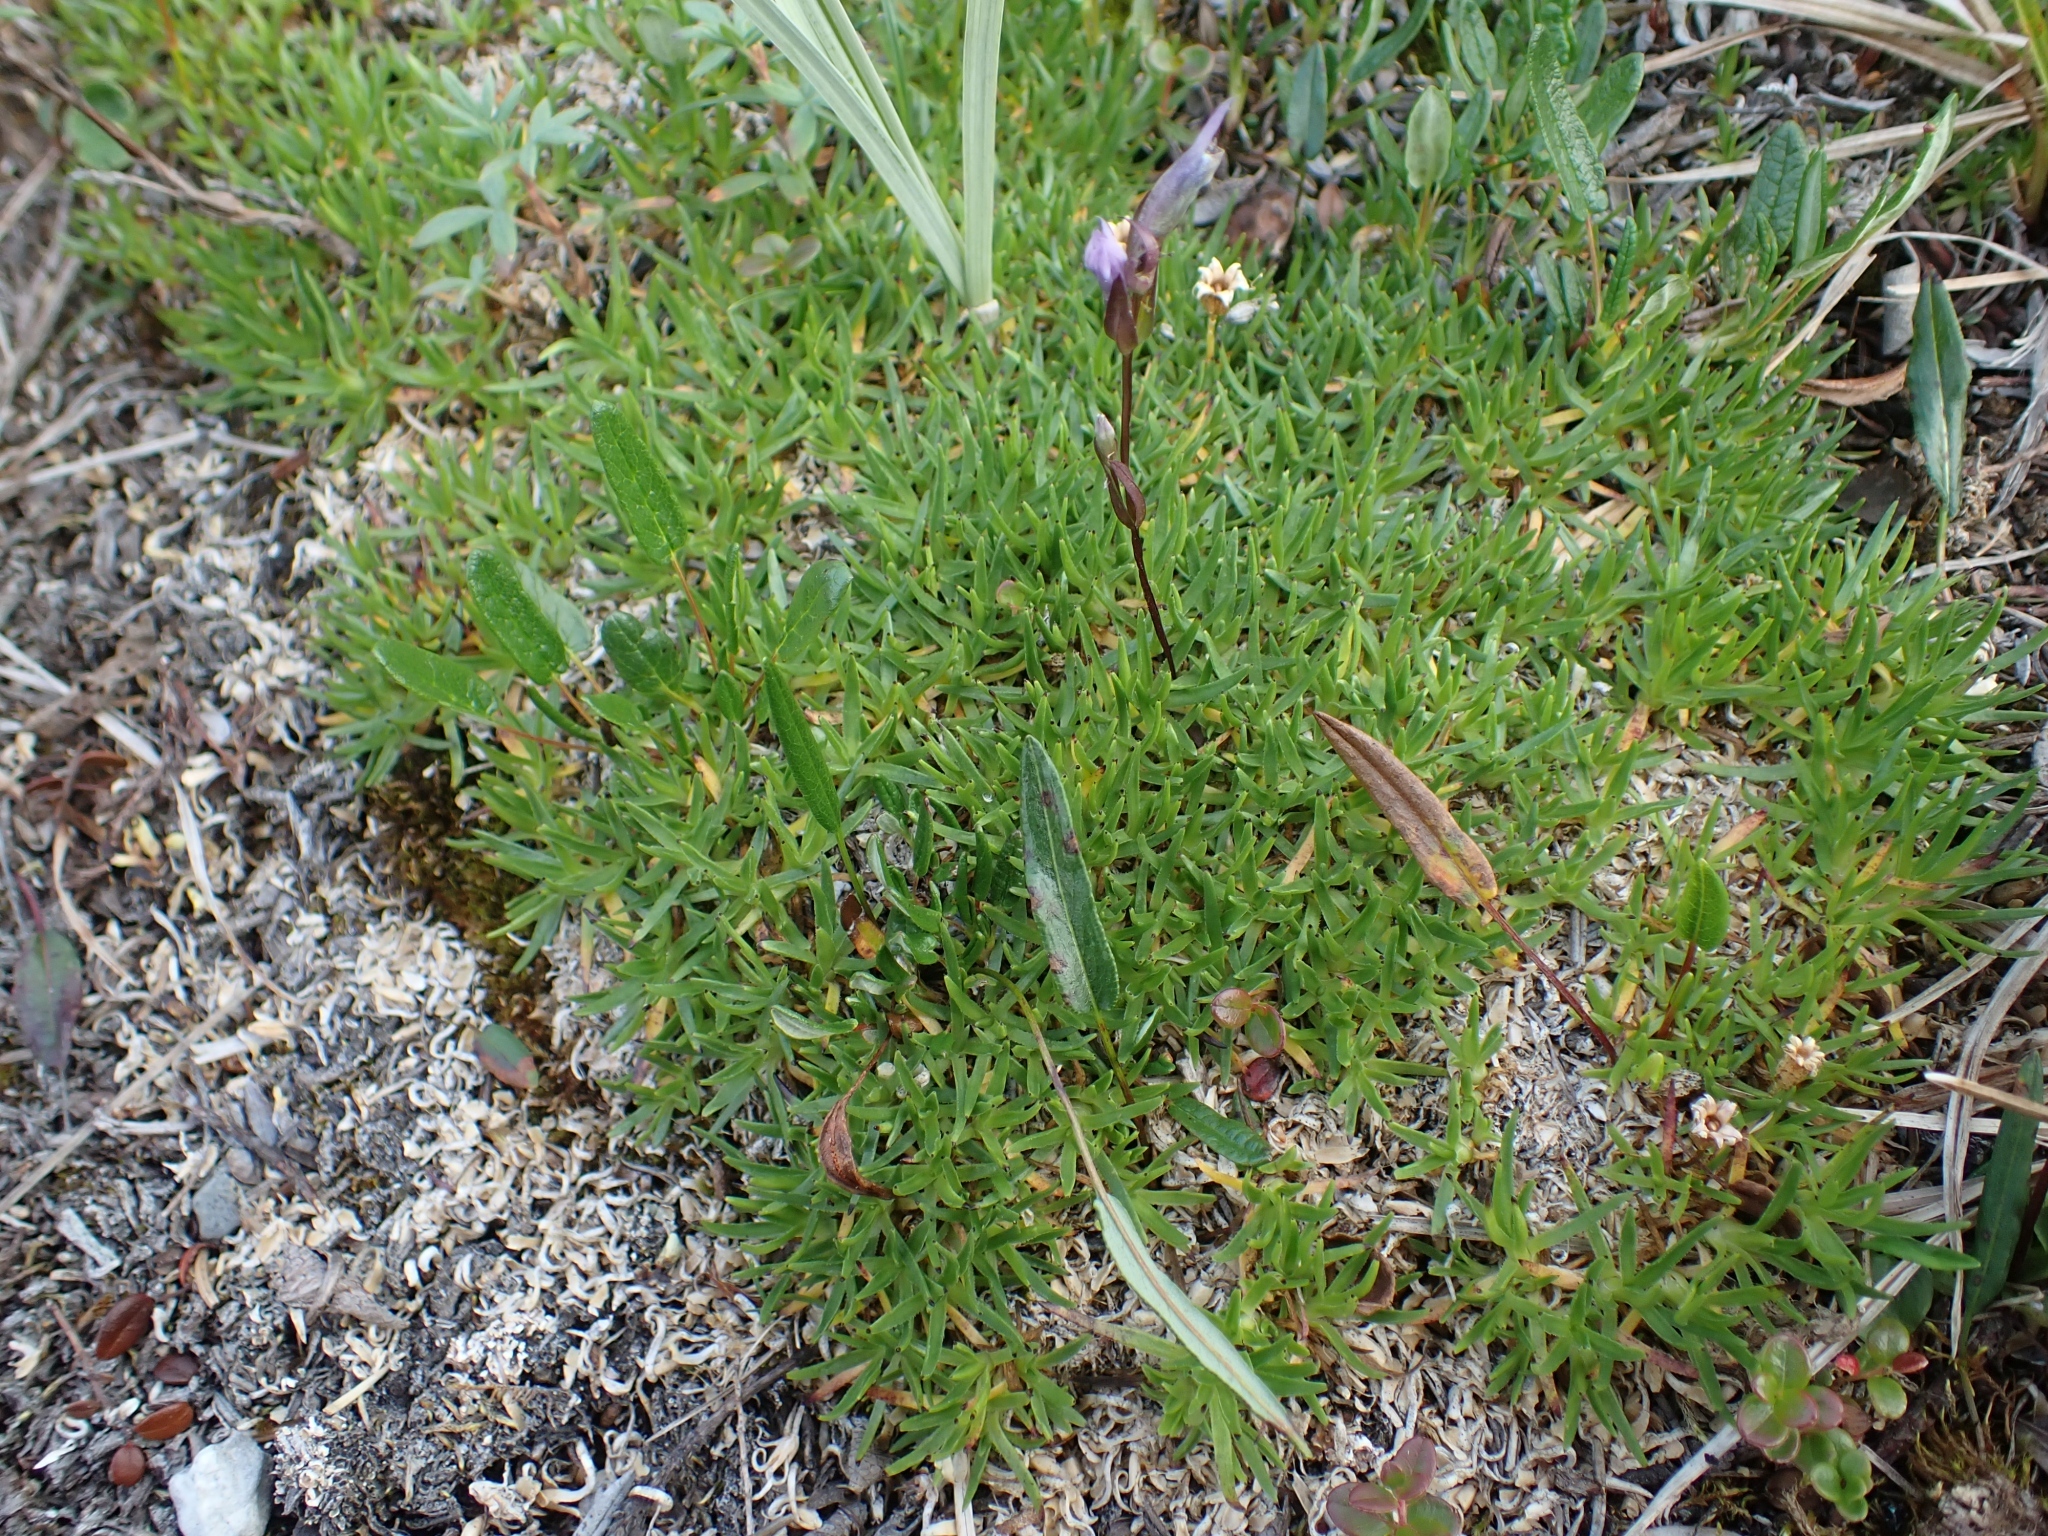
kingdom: Plantae
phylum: Tracheophyta
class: Magnoliopsida
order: Caryophyllales
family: Caryophyllaceae
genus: Silene
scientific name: Silene acaulis
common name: Moss campion
